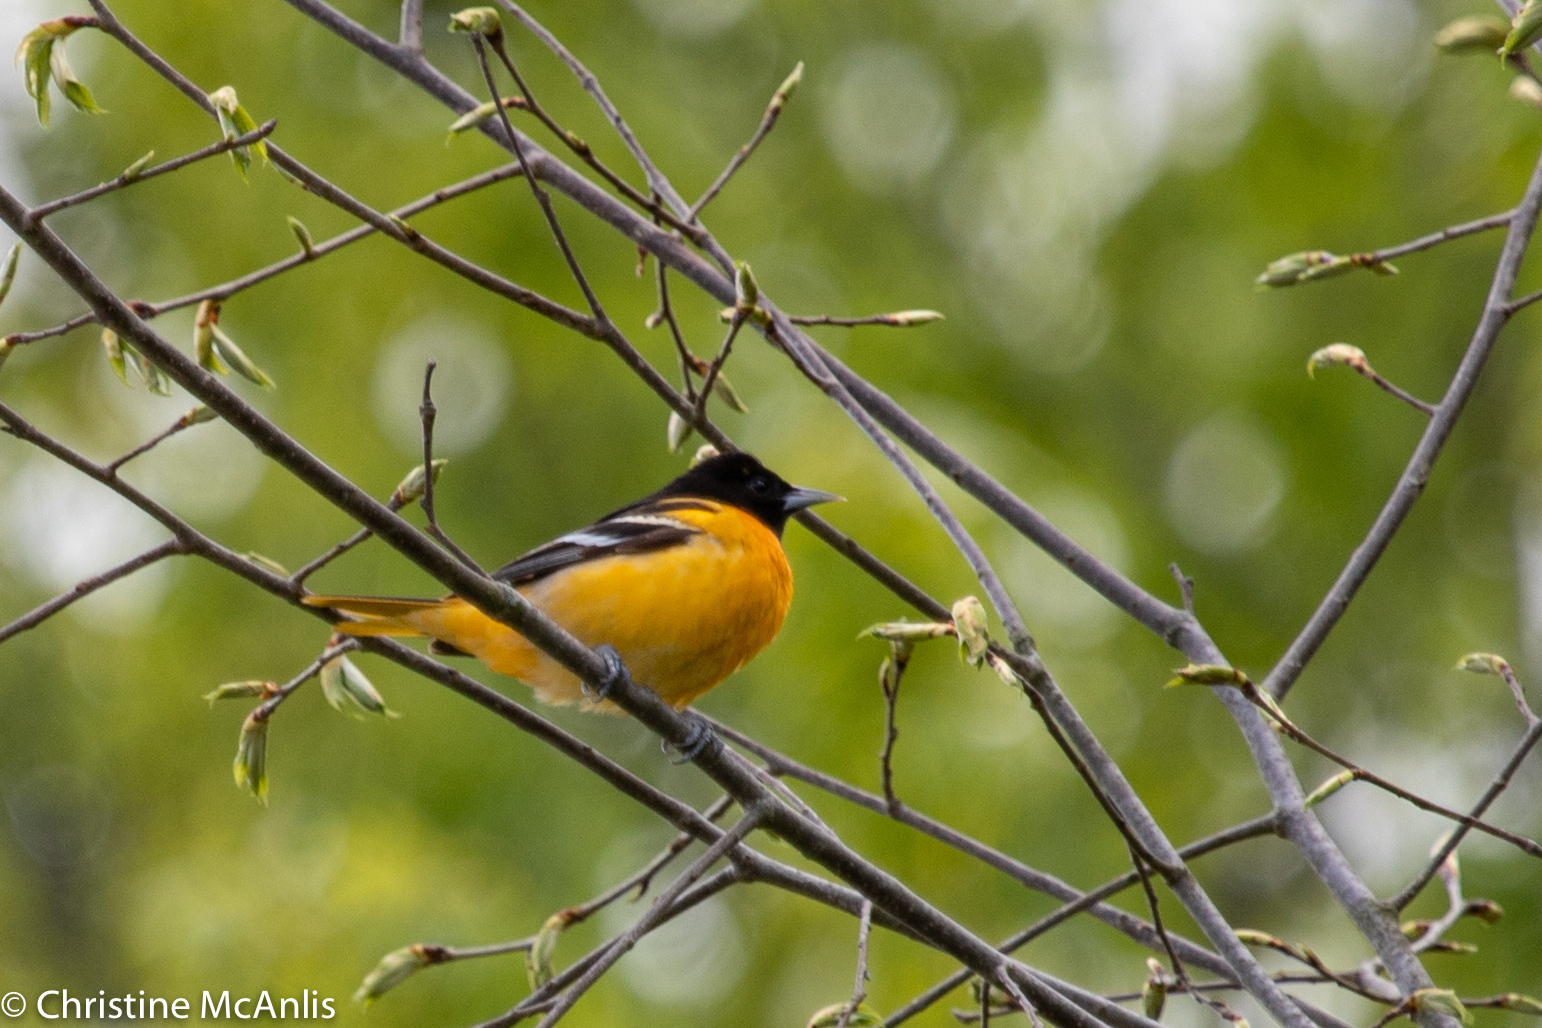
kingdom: Animalia
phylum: Chordata
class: Aves
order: Passeriformes
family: Icteridae
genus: Icterus
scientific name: Icterus galbula
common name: Baltimore oriole
